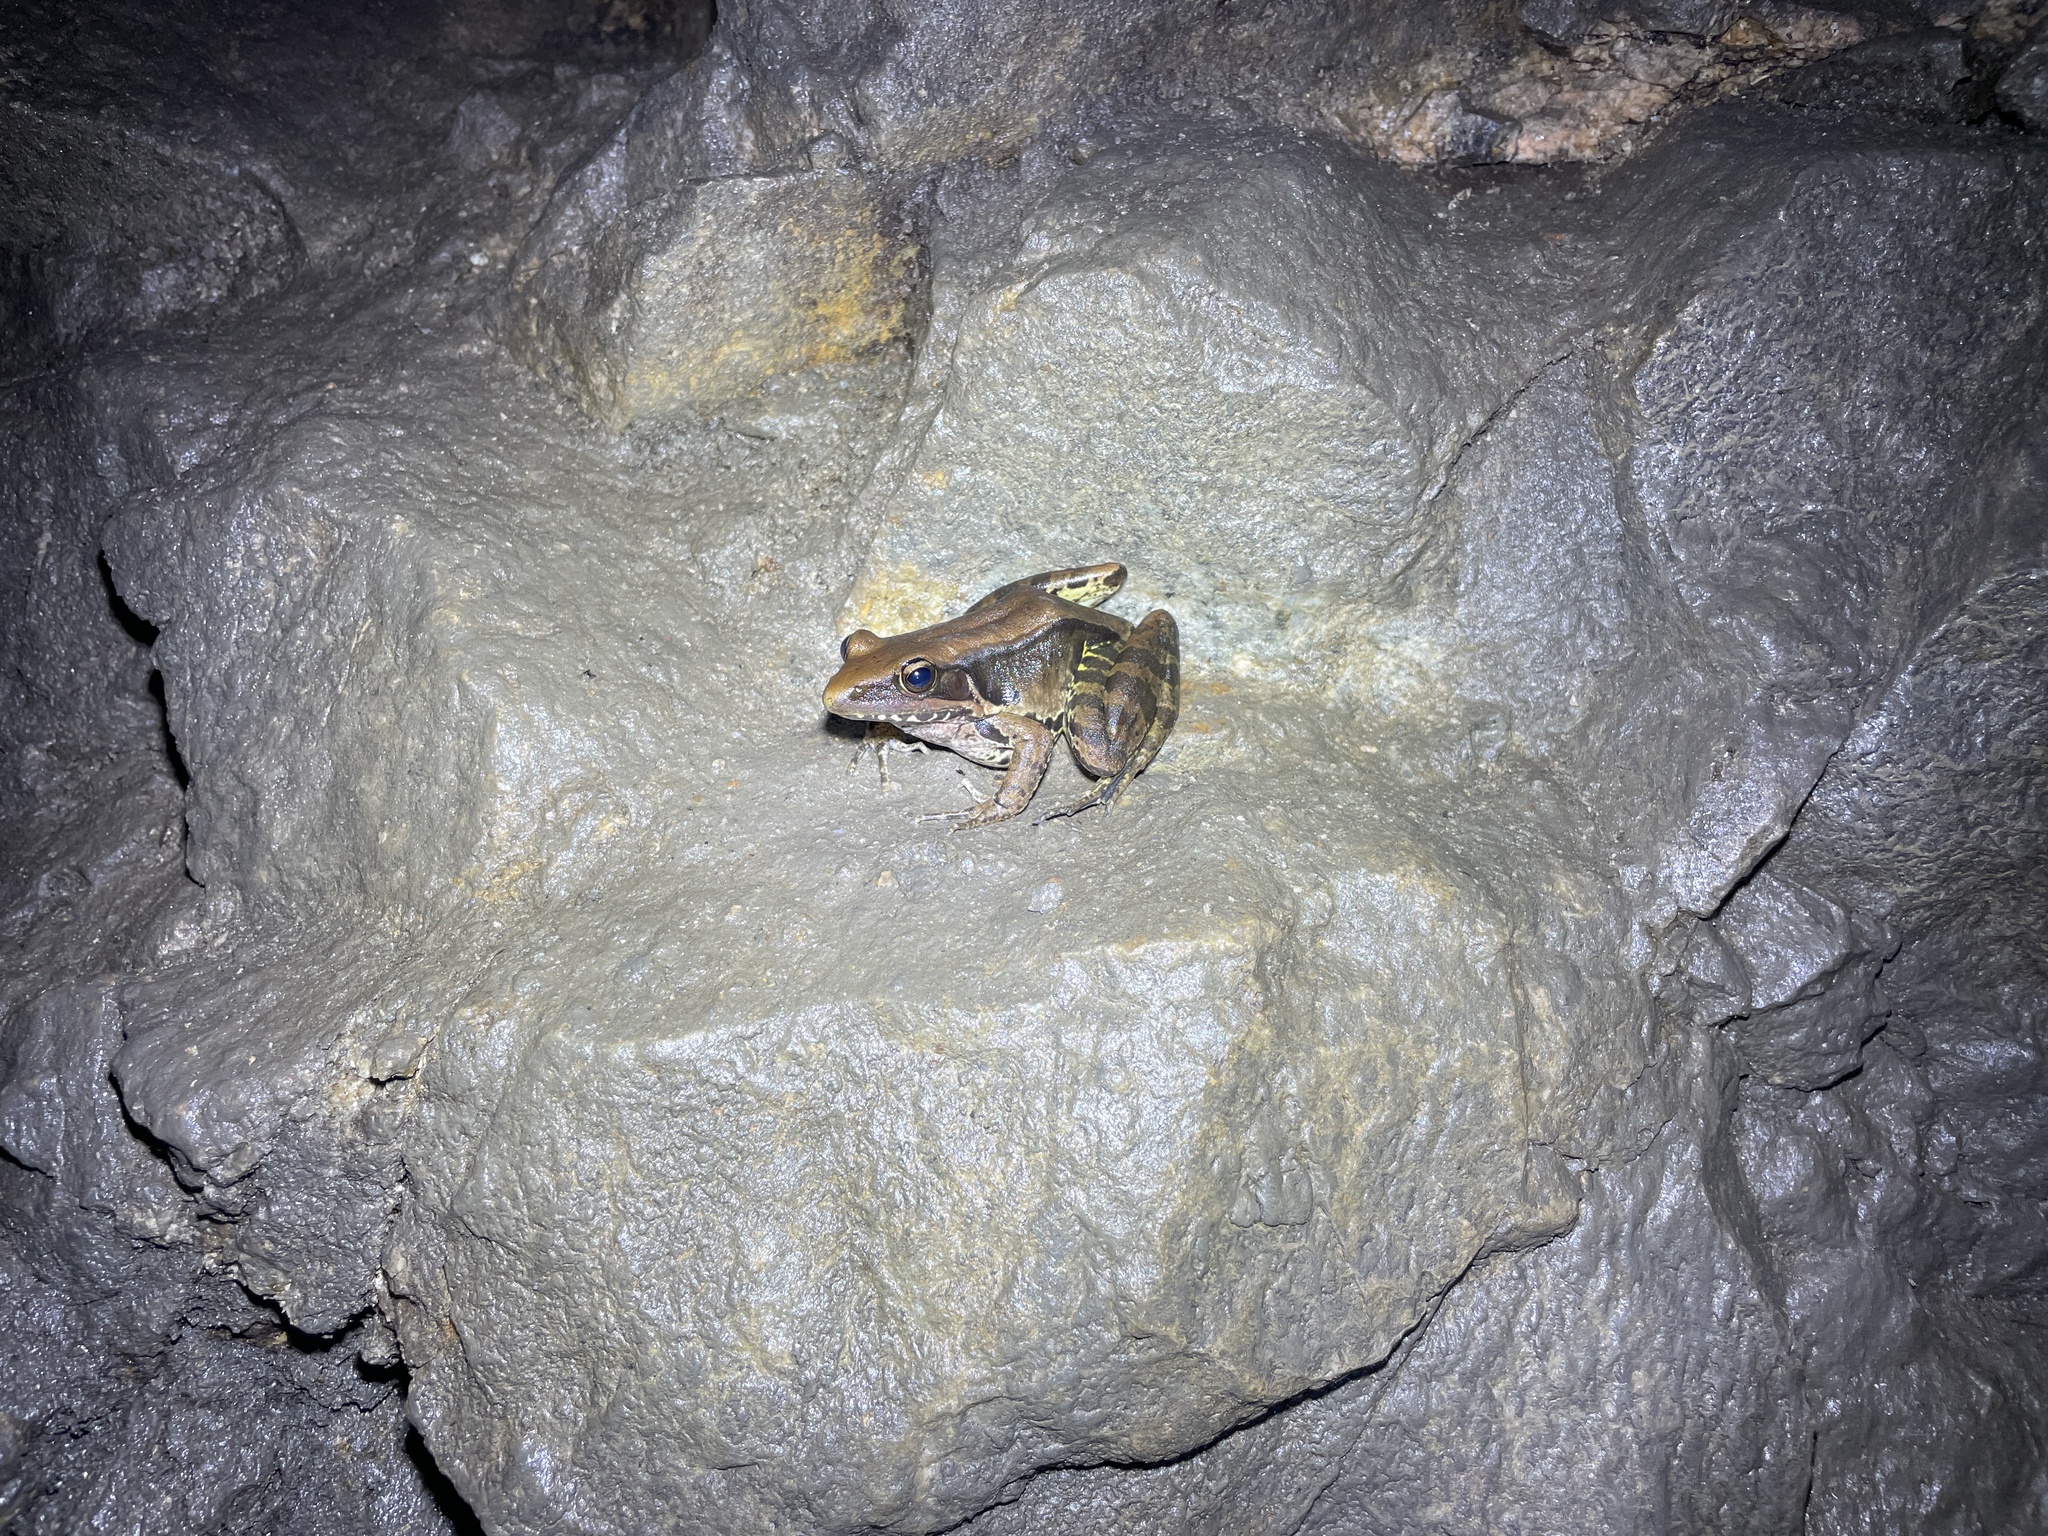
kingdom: Animalia
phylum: Chordata
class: Amphibia
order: Anura
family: Ranidae
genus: Sylvirana
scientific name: Sylvirana guentheri
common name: Guenther's amoy frog
